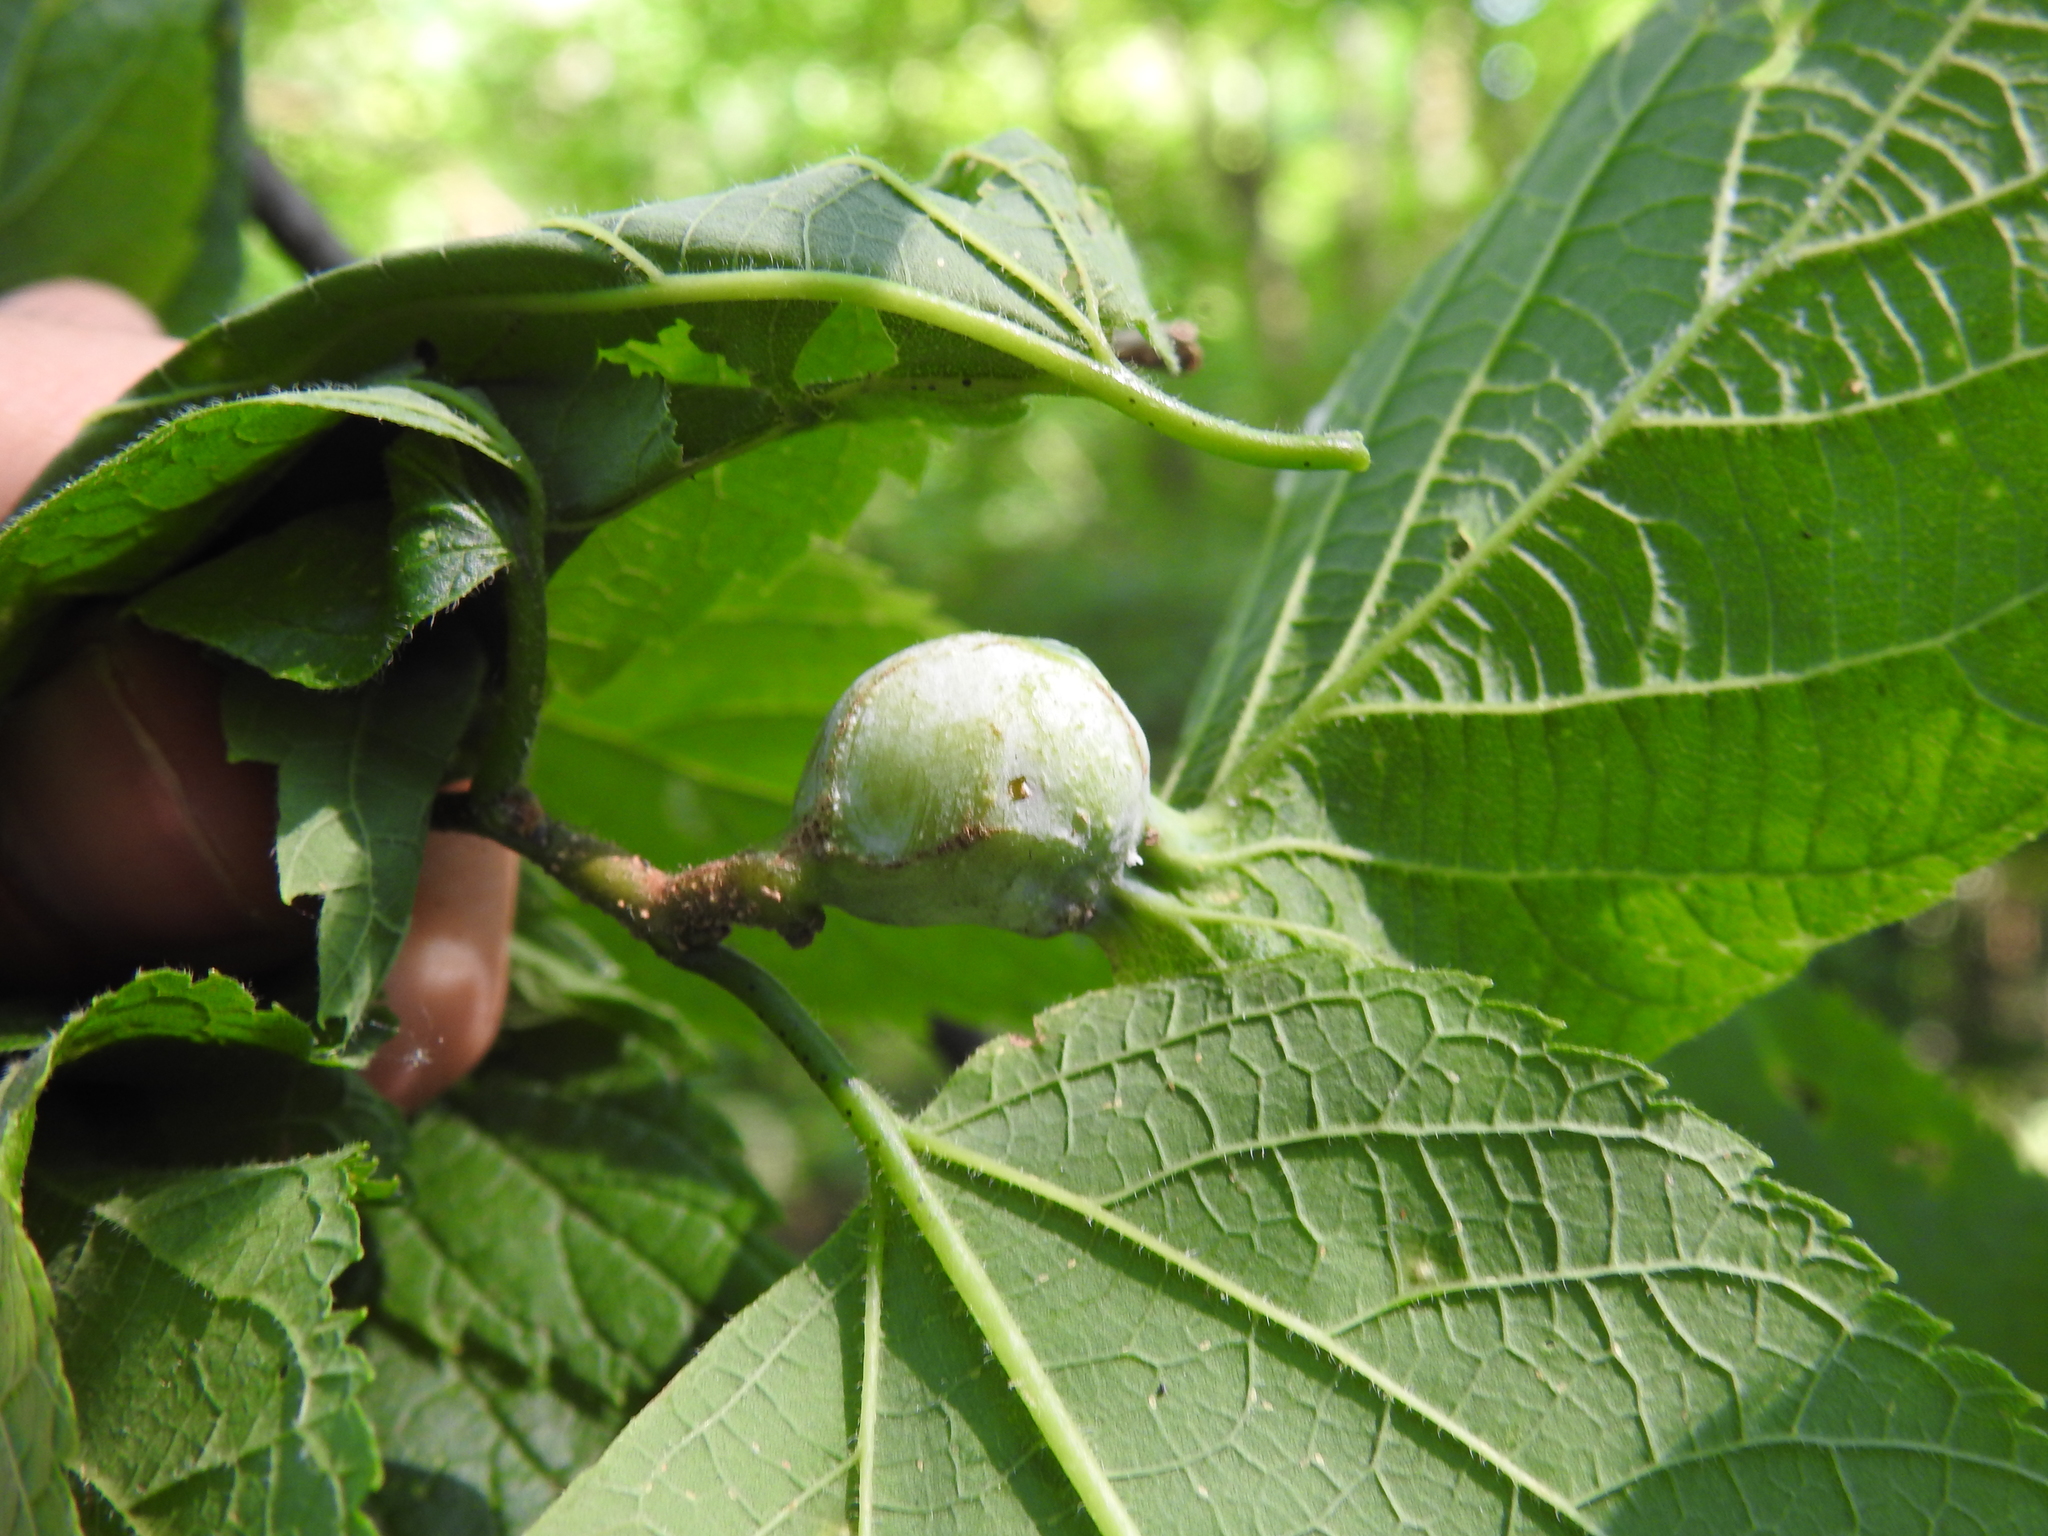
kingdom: Animalia
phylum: Arthropoda
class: Insecta
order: Hemiptera
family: Aphalaridae
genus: Pachypsylla
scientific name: Pachypsylla venusta
